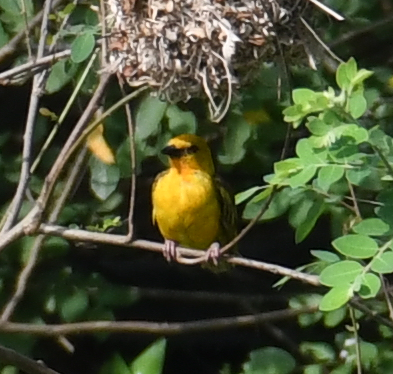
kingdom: Animalia
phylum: Chordata
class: Aves
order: Passeriformes
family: Ploceidae
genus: Ploceus
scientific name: Ploceus aurantius
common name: Orange weaver
